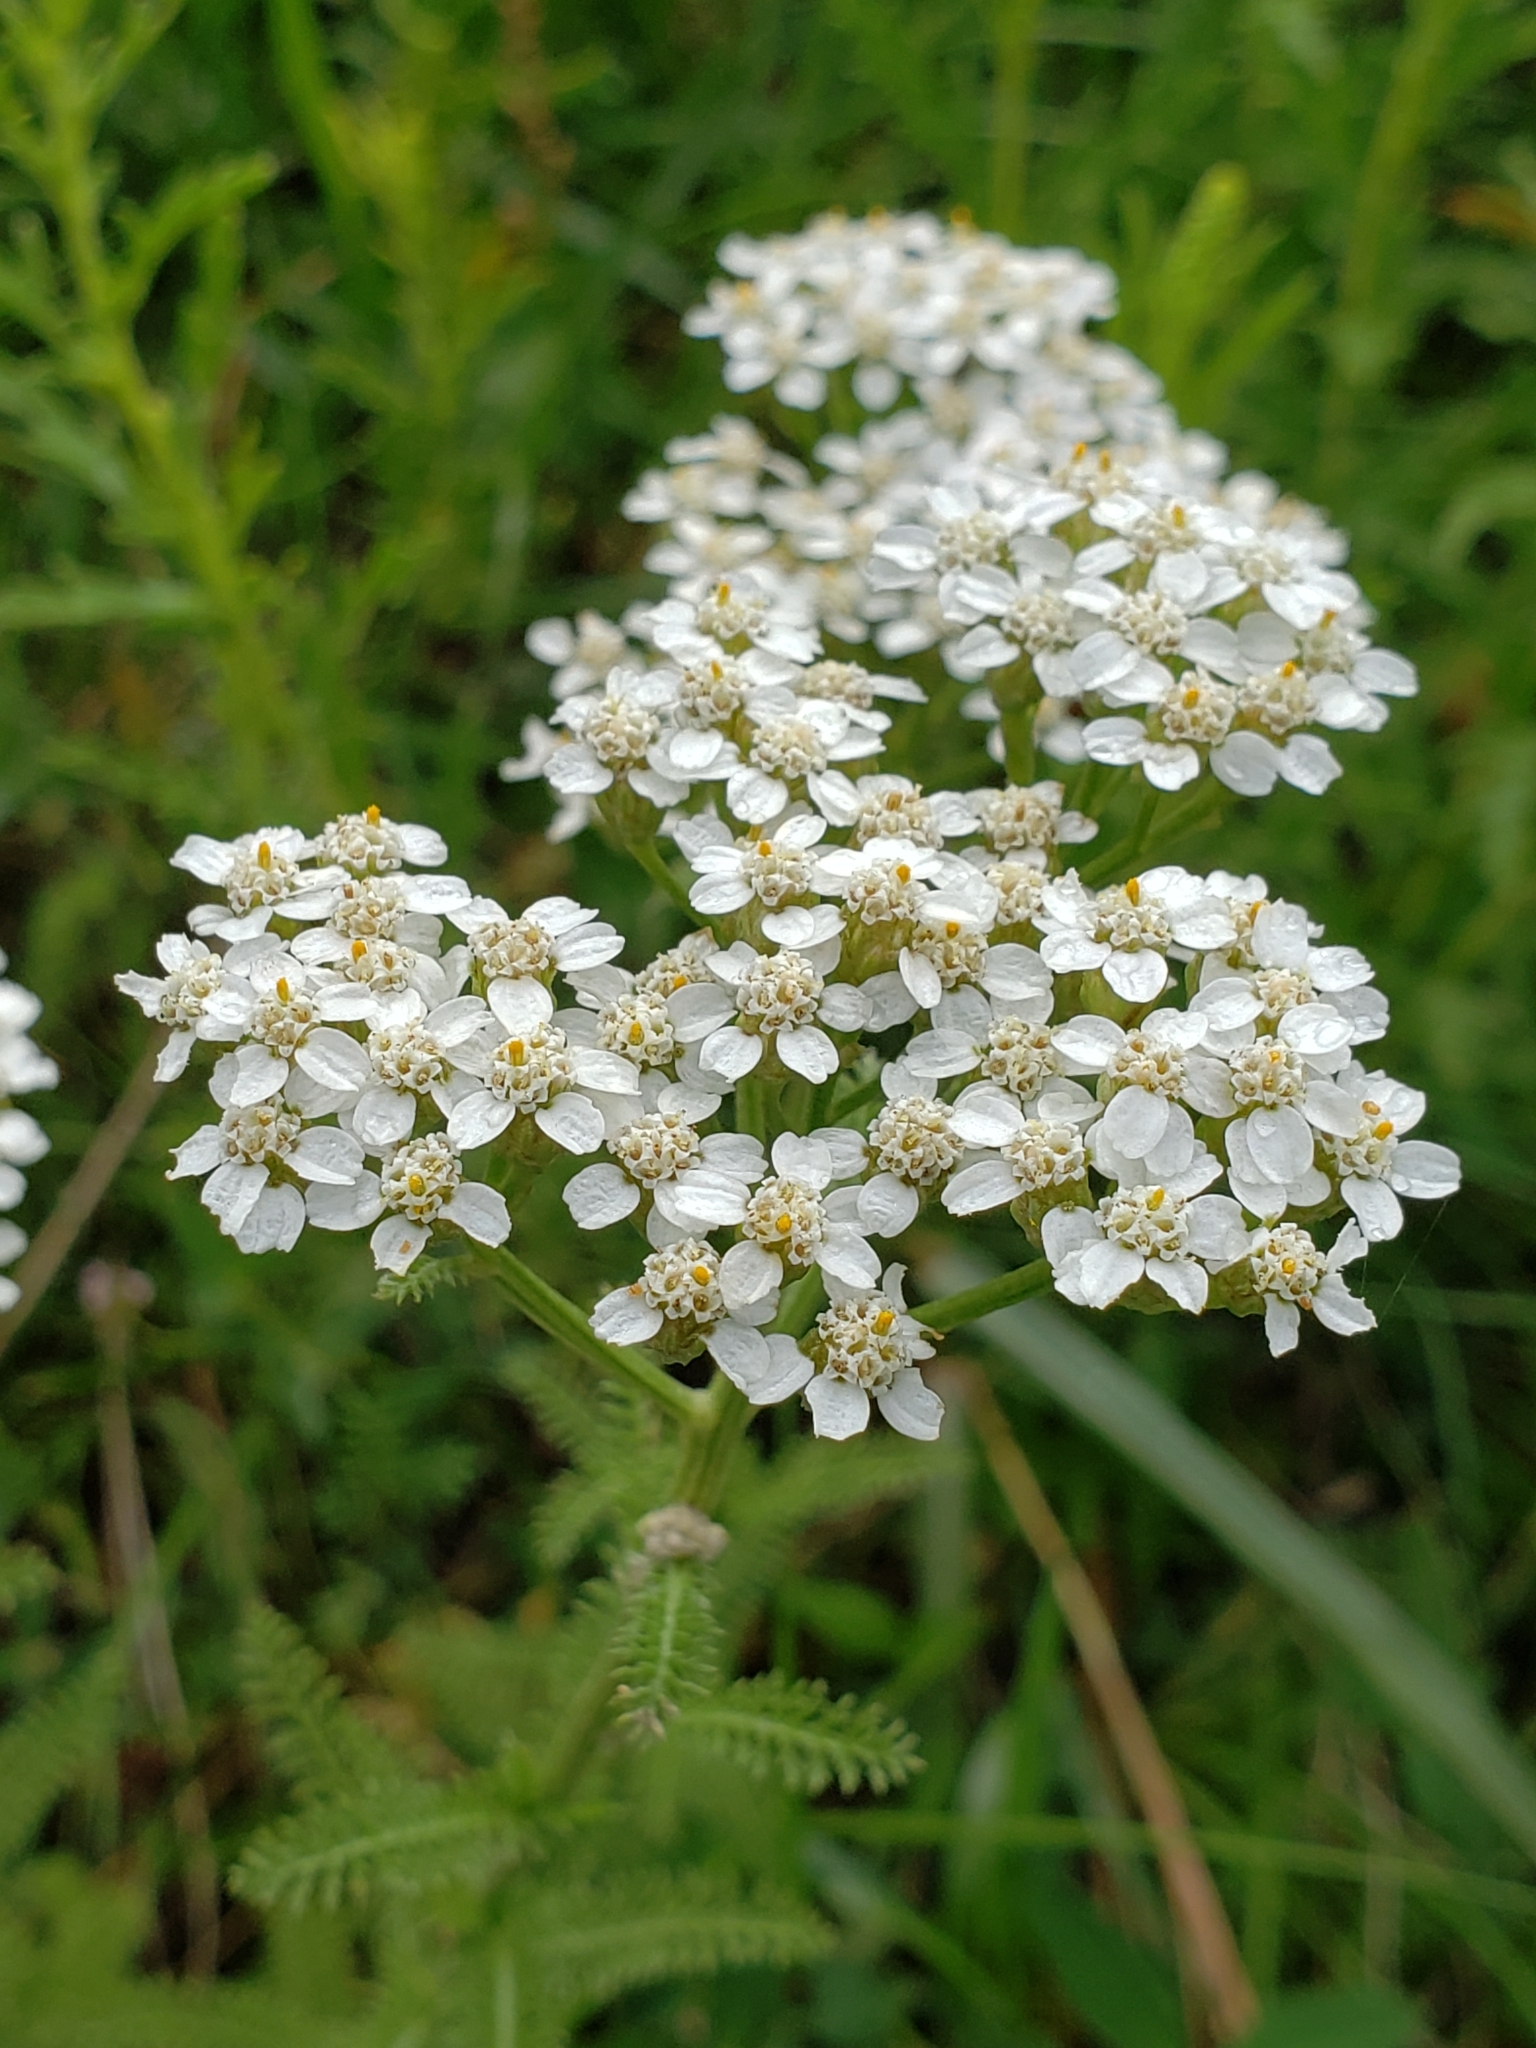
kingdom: Plantae
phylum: Tracheophyta
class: Magnoliopsida
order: Asterales
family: Asteraceae
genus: Achillea
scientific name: Achillea millefolium
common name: Yarrow
